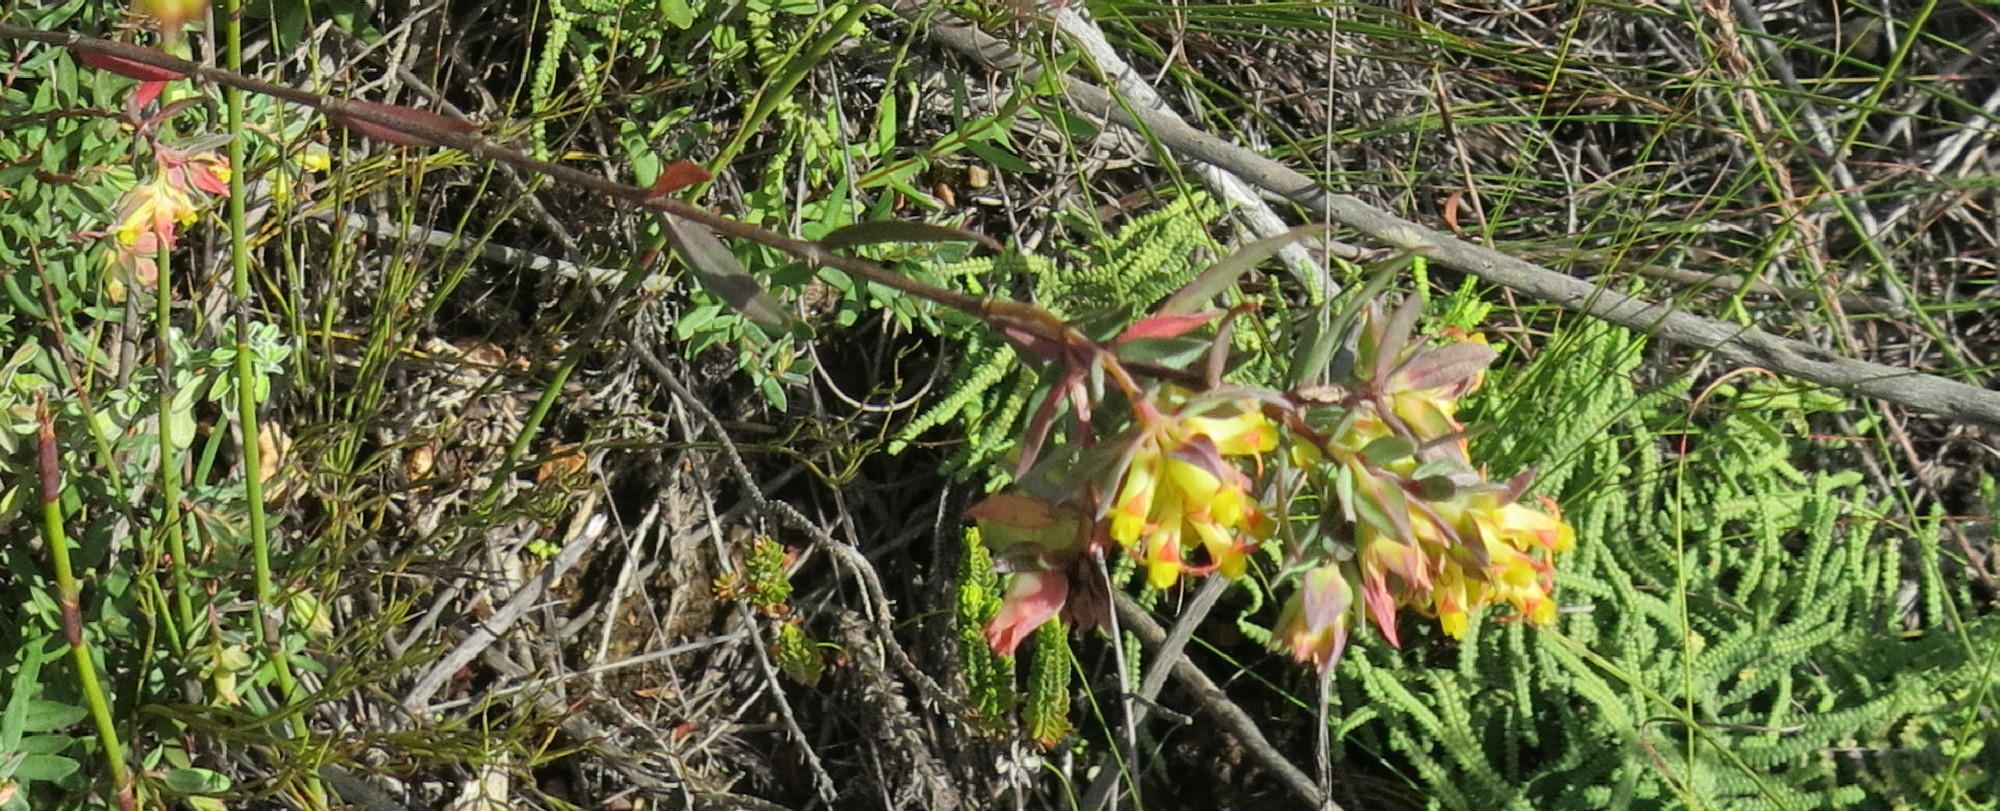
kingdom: Plantae
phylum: Tracheophyta
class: Magnoliopsida
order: Myrtales
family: Penaeaceae
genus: Penaea
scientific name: Penaea acutifolia
